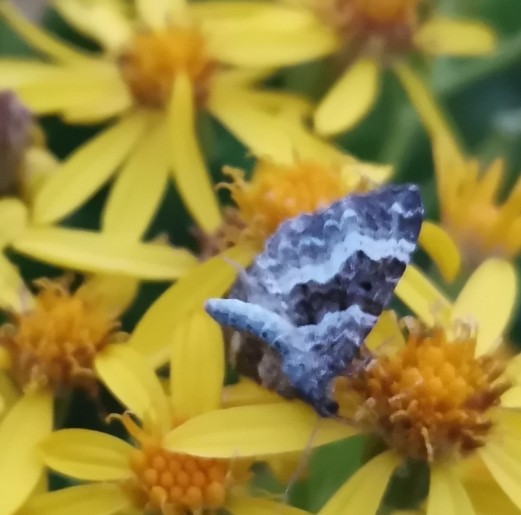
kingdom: Animalia
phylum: Arthropoda
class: Insecta
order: Lepidoptera
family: Geometridae
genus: Epirrhoe
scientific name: Epirrhoe alternata
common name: Common carpet
